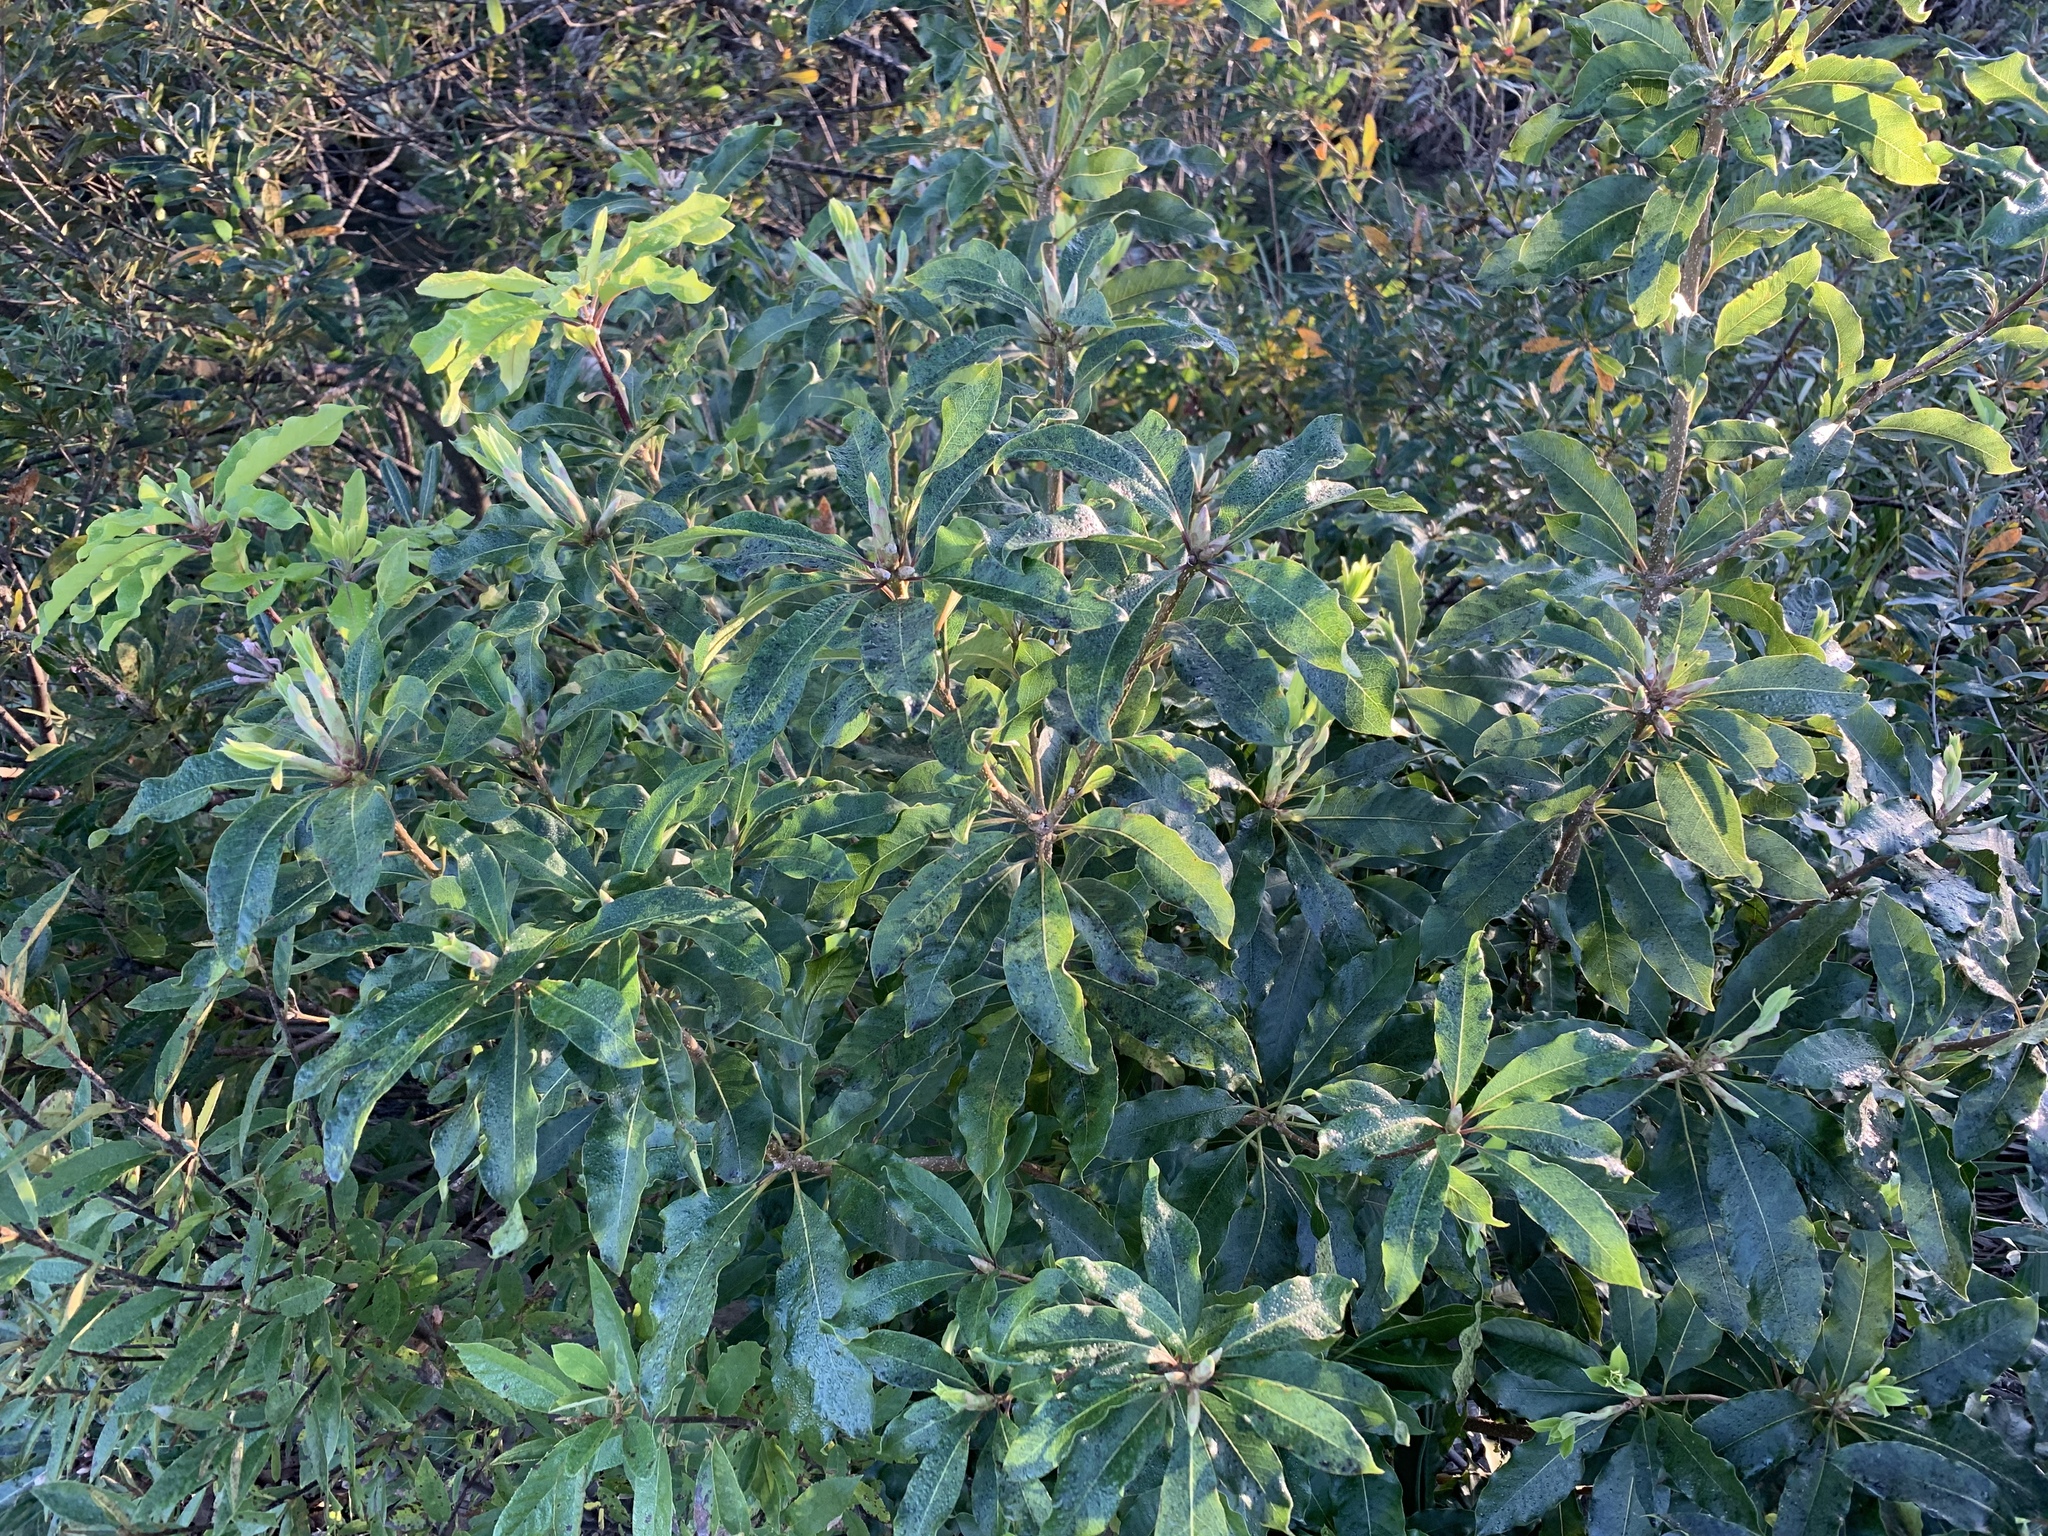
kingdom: Plantae
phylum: Tracheophyta
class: Magnoliopsida
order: Apiales
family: Pittosporaceae
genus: Pittosporum
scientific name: Pittosporum undulatum
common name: Australian cheesewood
